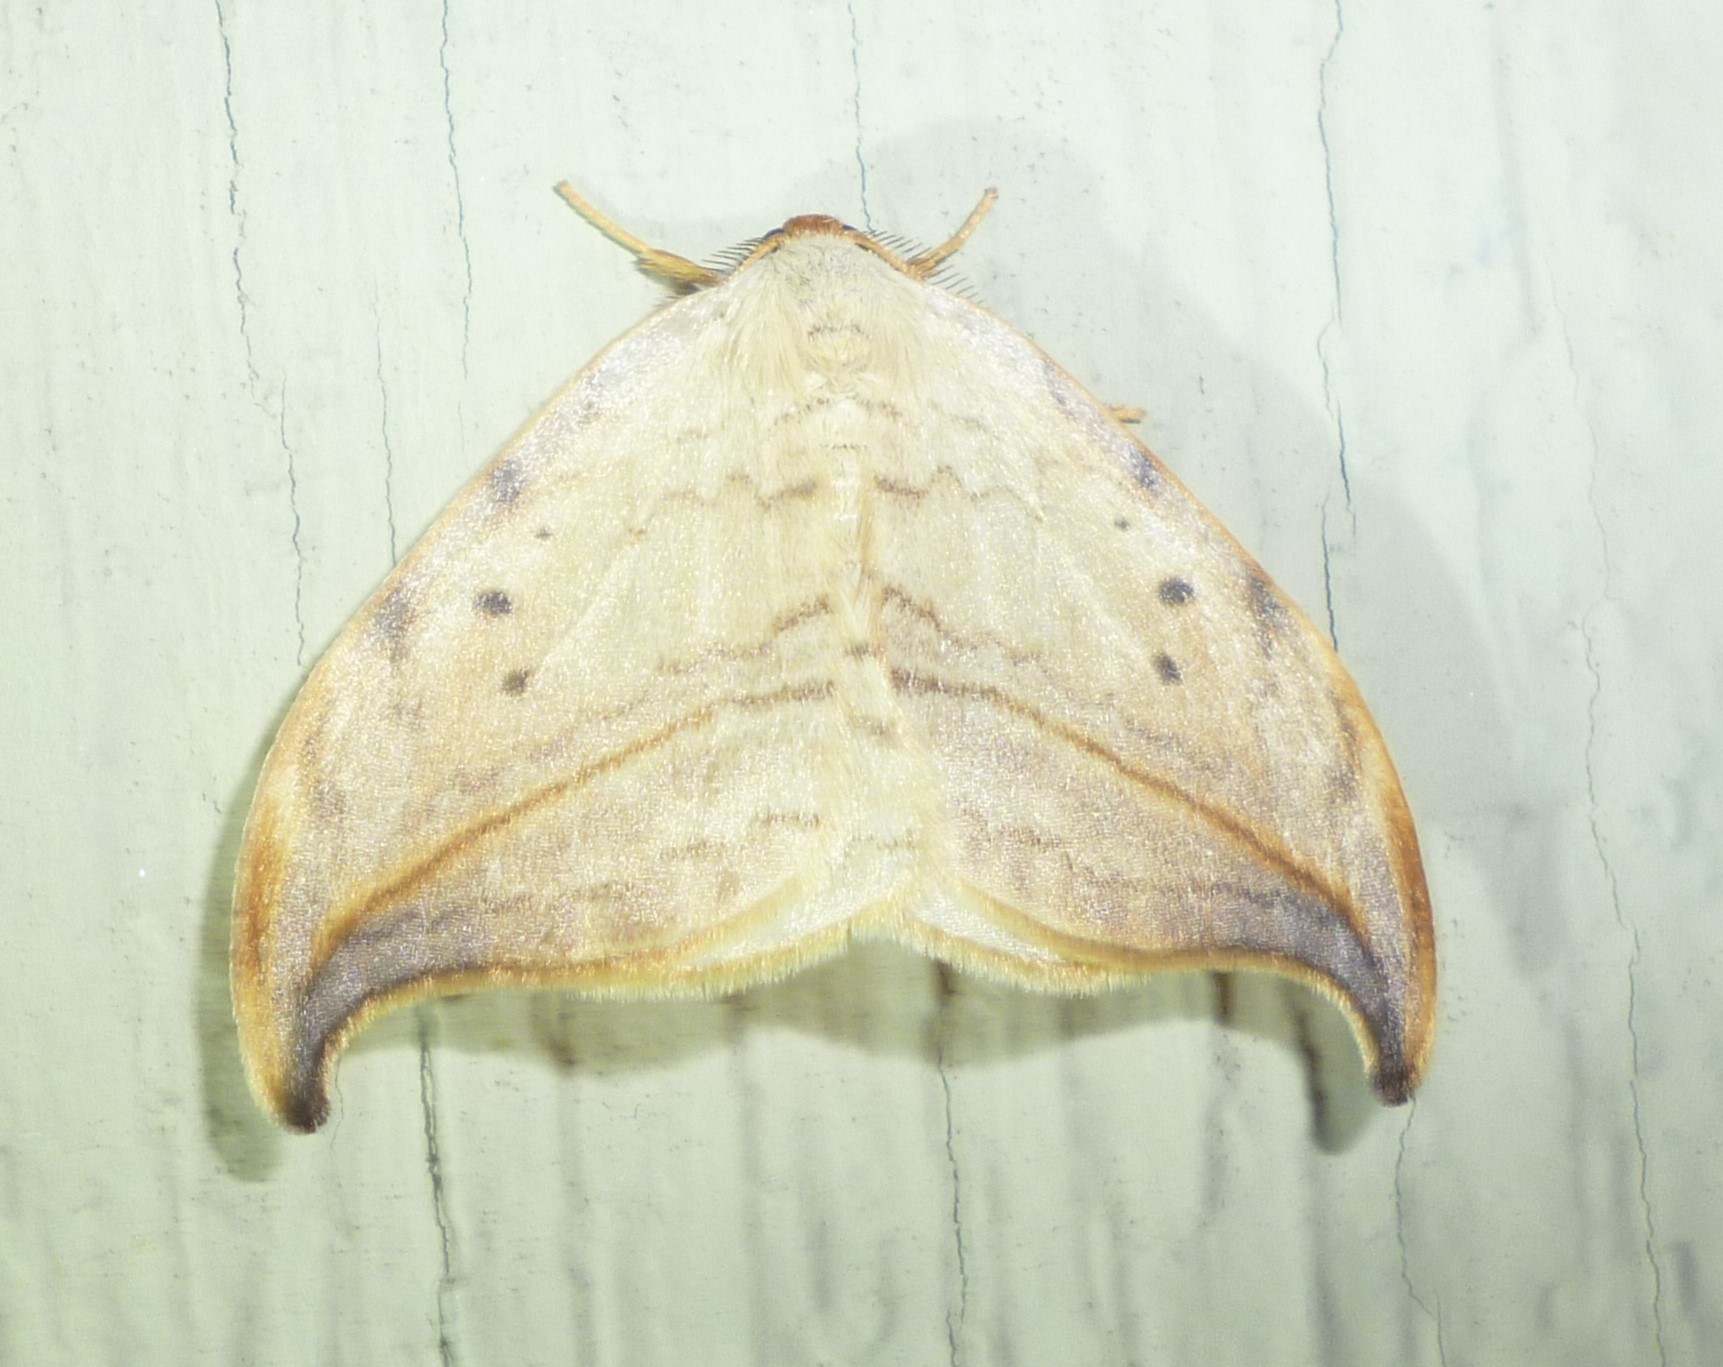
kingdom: Animalia
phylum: Arthropoda
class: Insecta
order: Lepidoptera
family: Drepanidae
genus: Drepana
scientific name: Drepana arcuata
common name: Arched hooktip moth
